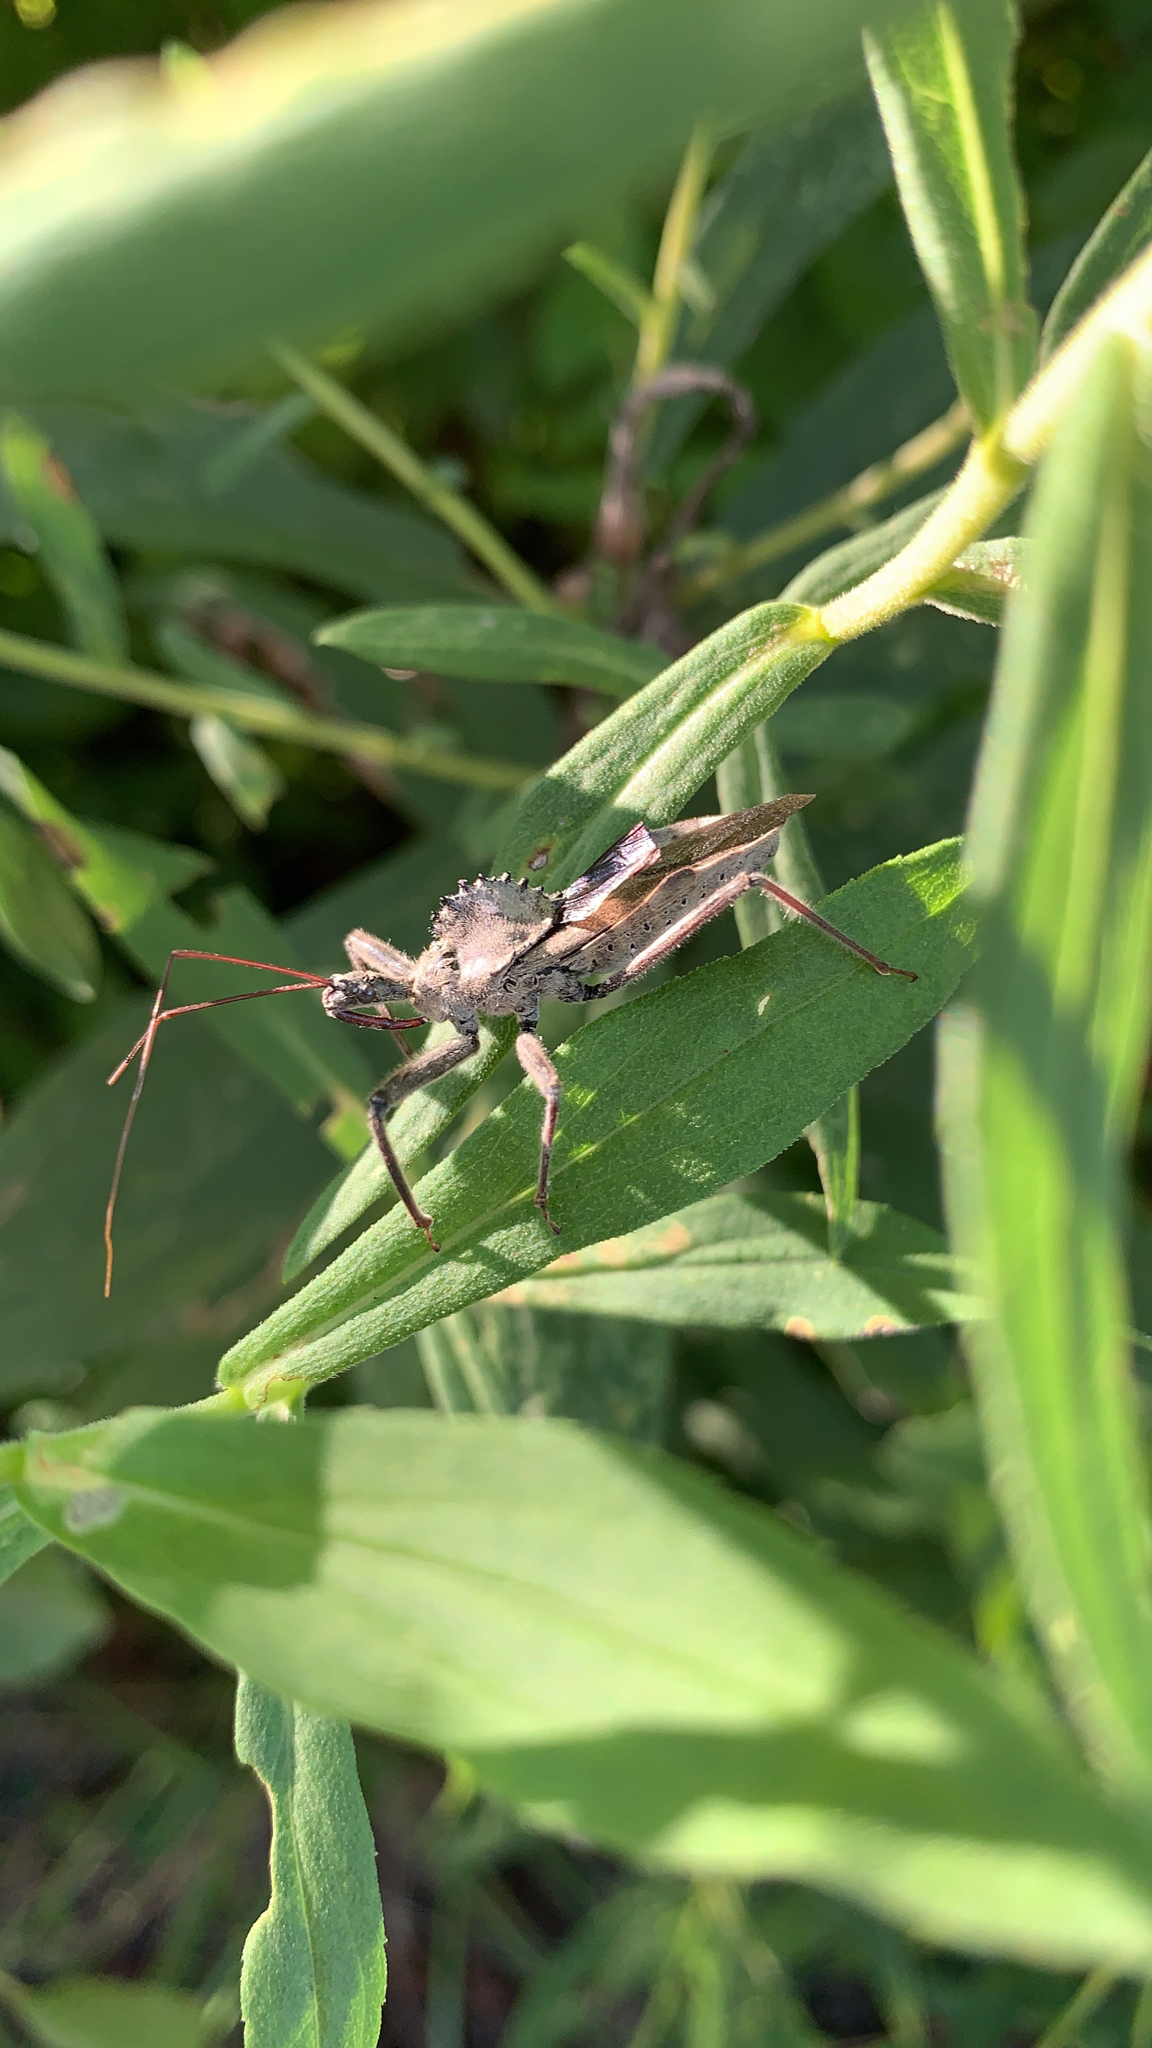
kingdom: Animalia
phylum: Arthropoda
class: Insecta
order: Hemiptera
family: Reduviidae
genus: Arilus
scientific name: Arilus cristatus
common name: North american wheel bug
